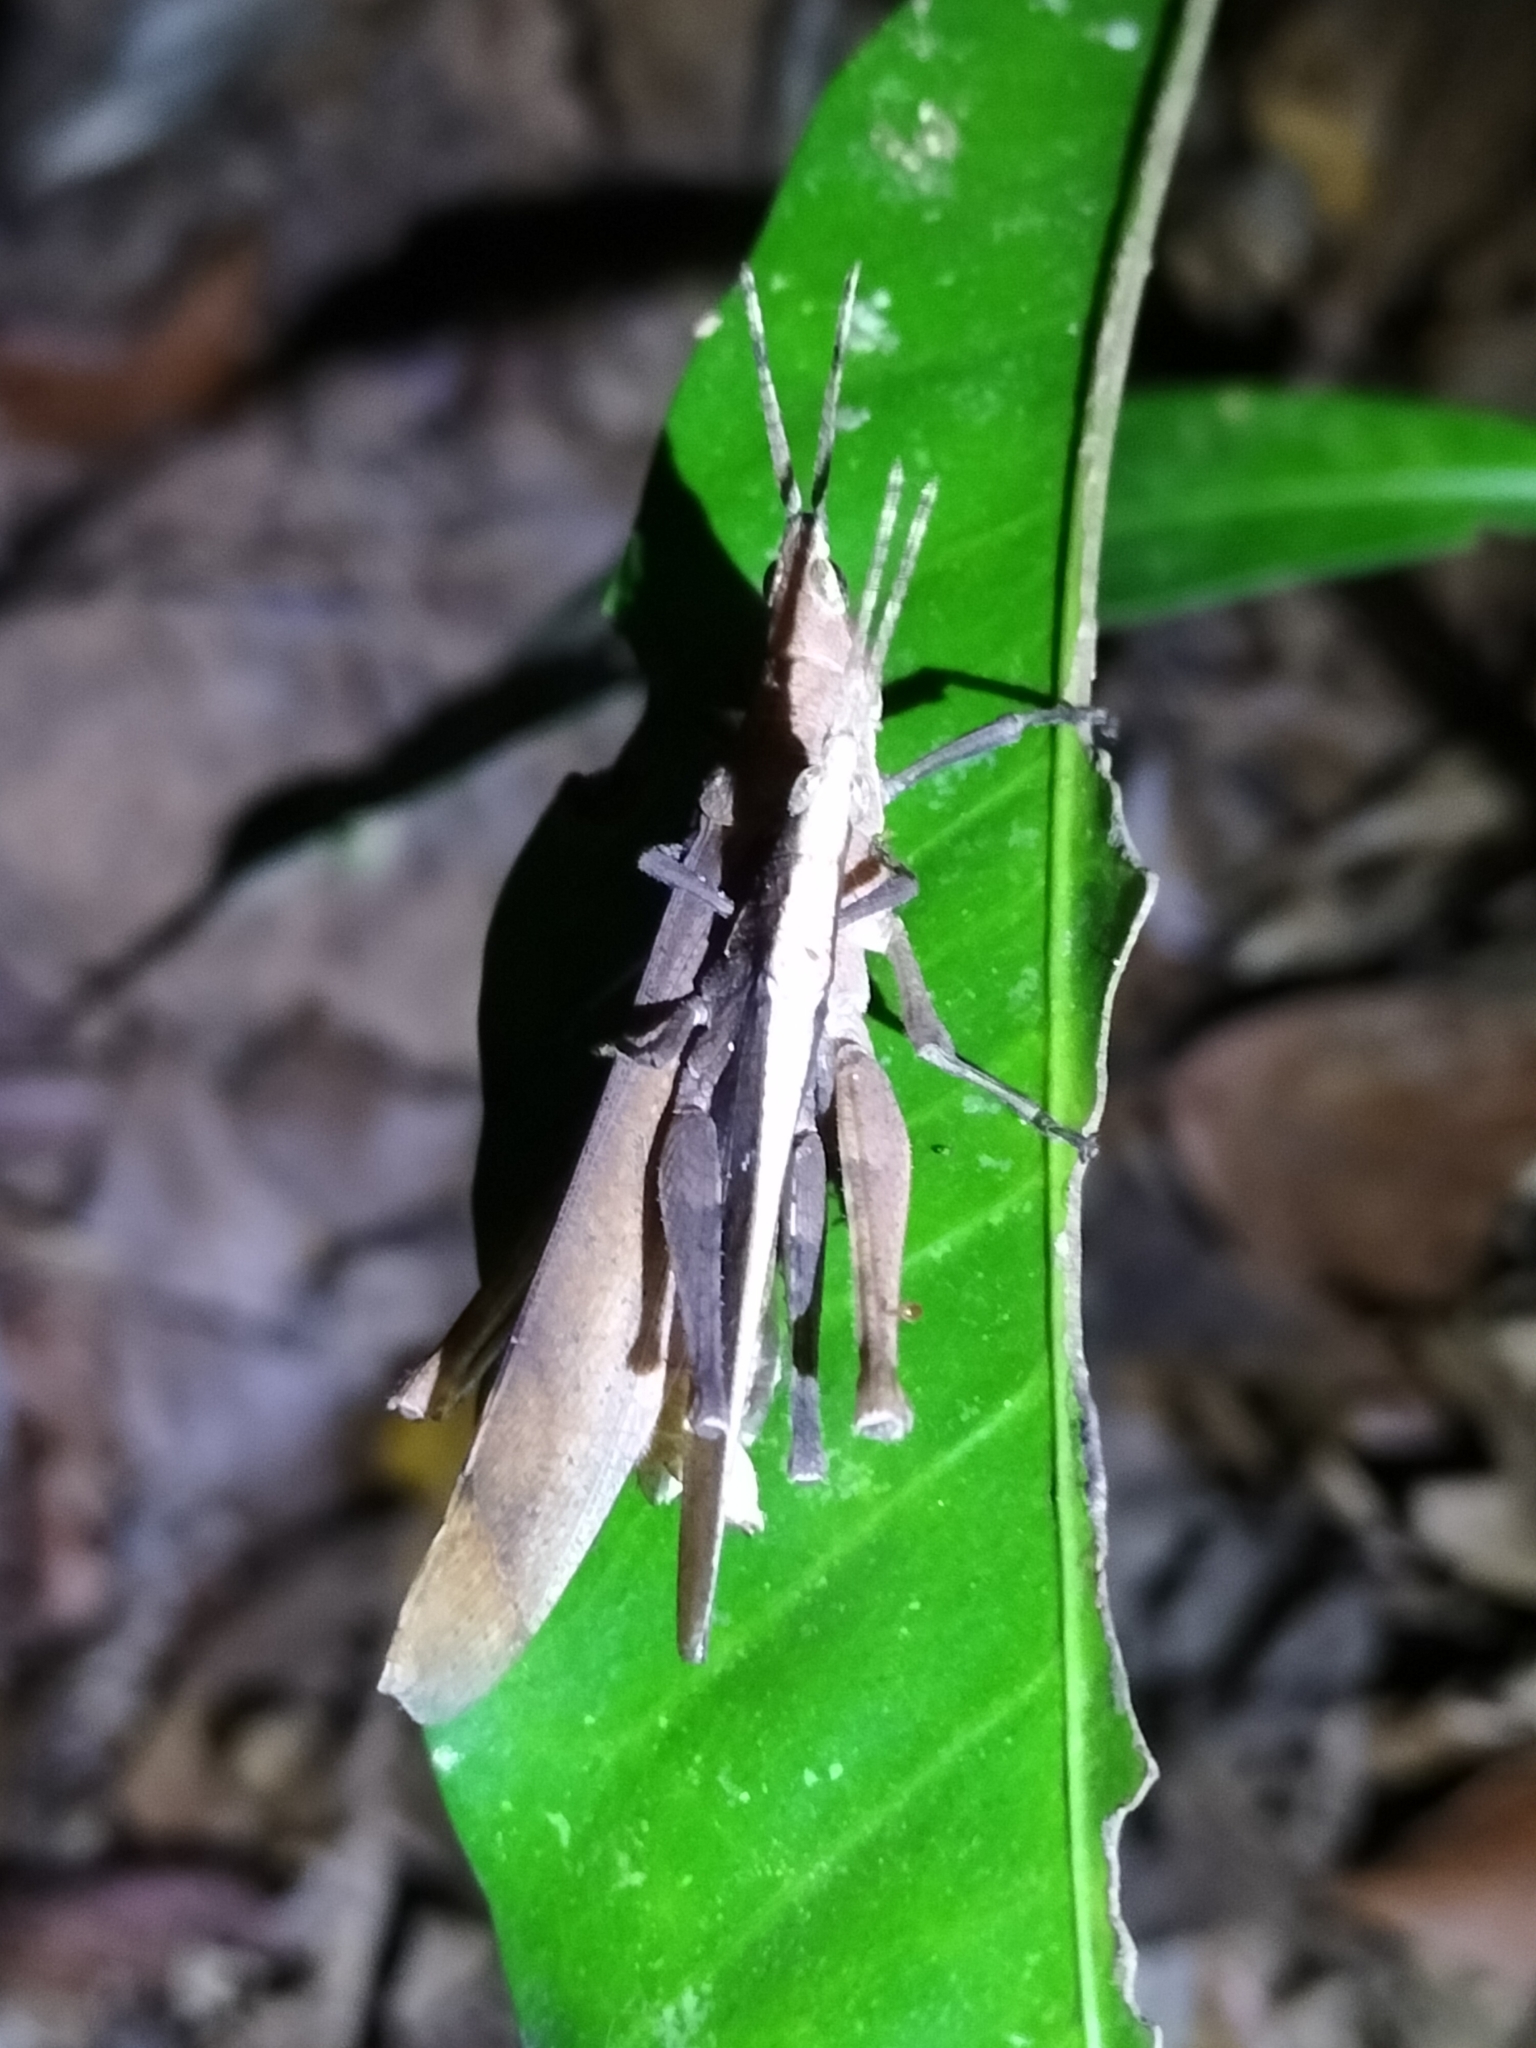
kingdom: Animalia
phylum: Arthropoda
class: Insecta
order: Orthoptera
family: Pyrgomorphidae
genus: Desmoptera
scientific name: Desmoptera truncatipennis
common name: Large forest pyrgomorph
